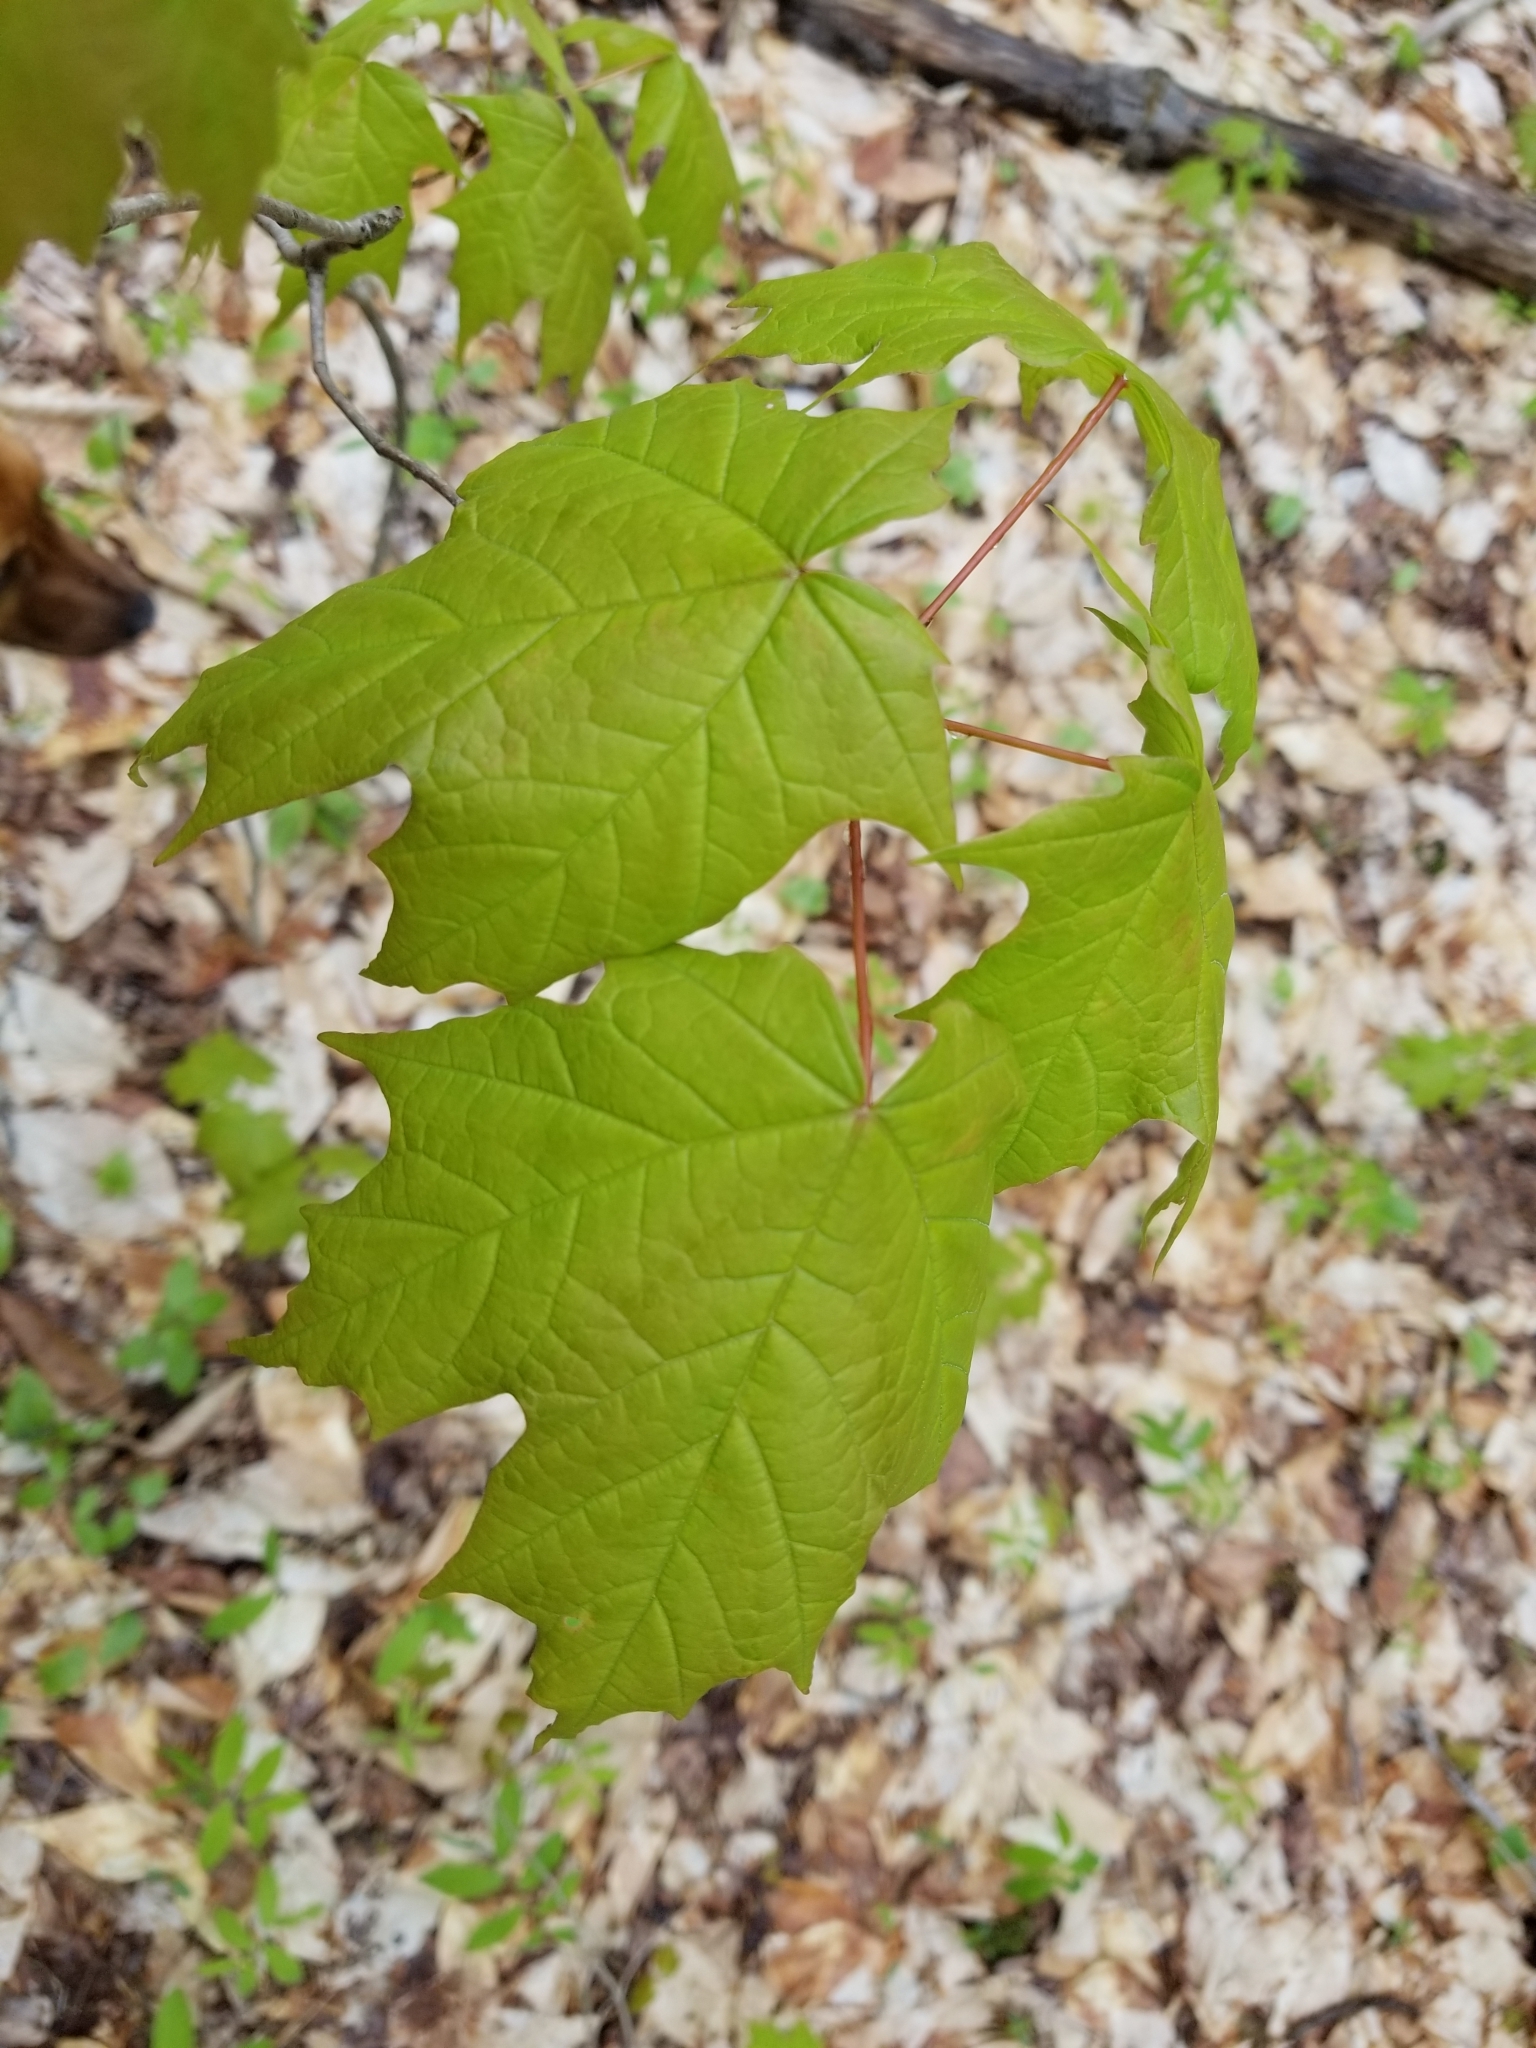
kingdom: Plantae
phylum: Tracheophyta
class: Magnoliopsida
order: Sapindales
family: Sapindaceae
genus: Acer
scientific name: Acer saccharum
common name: Sugar maple
